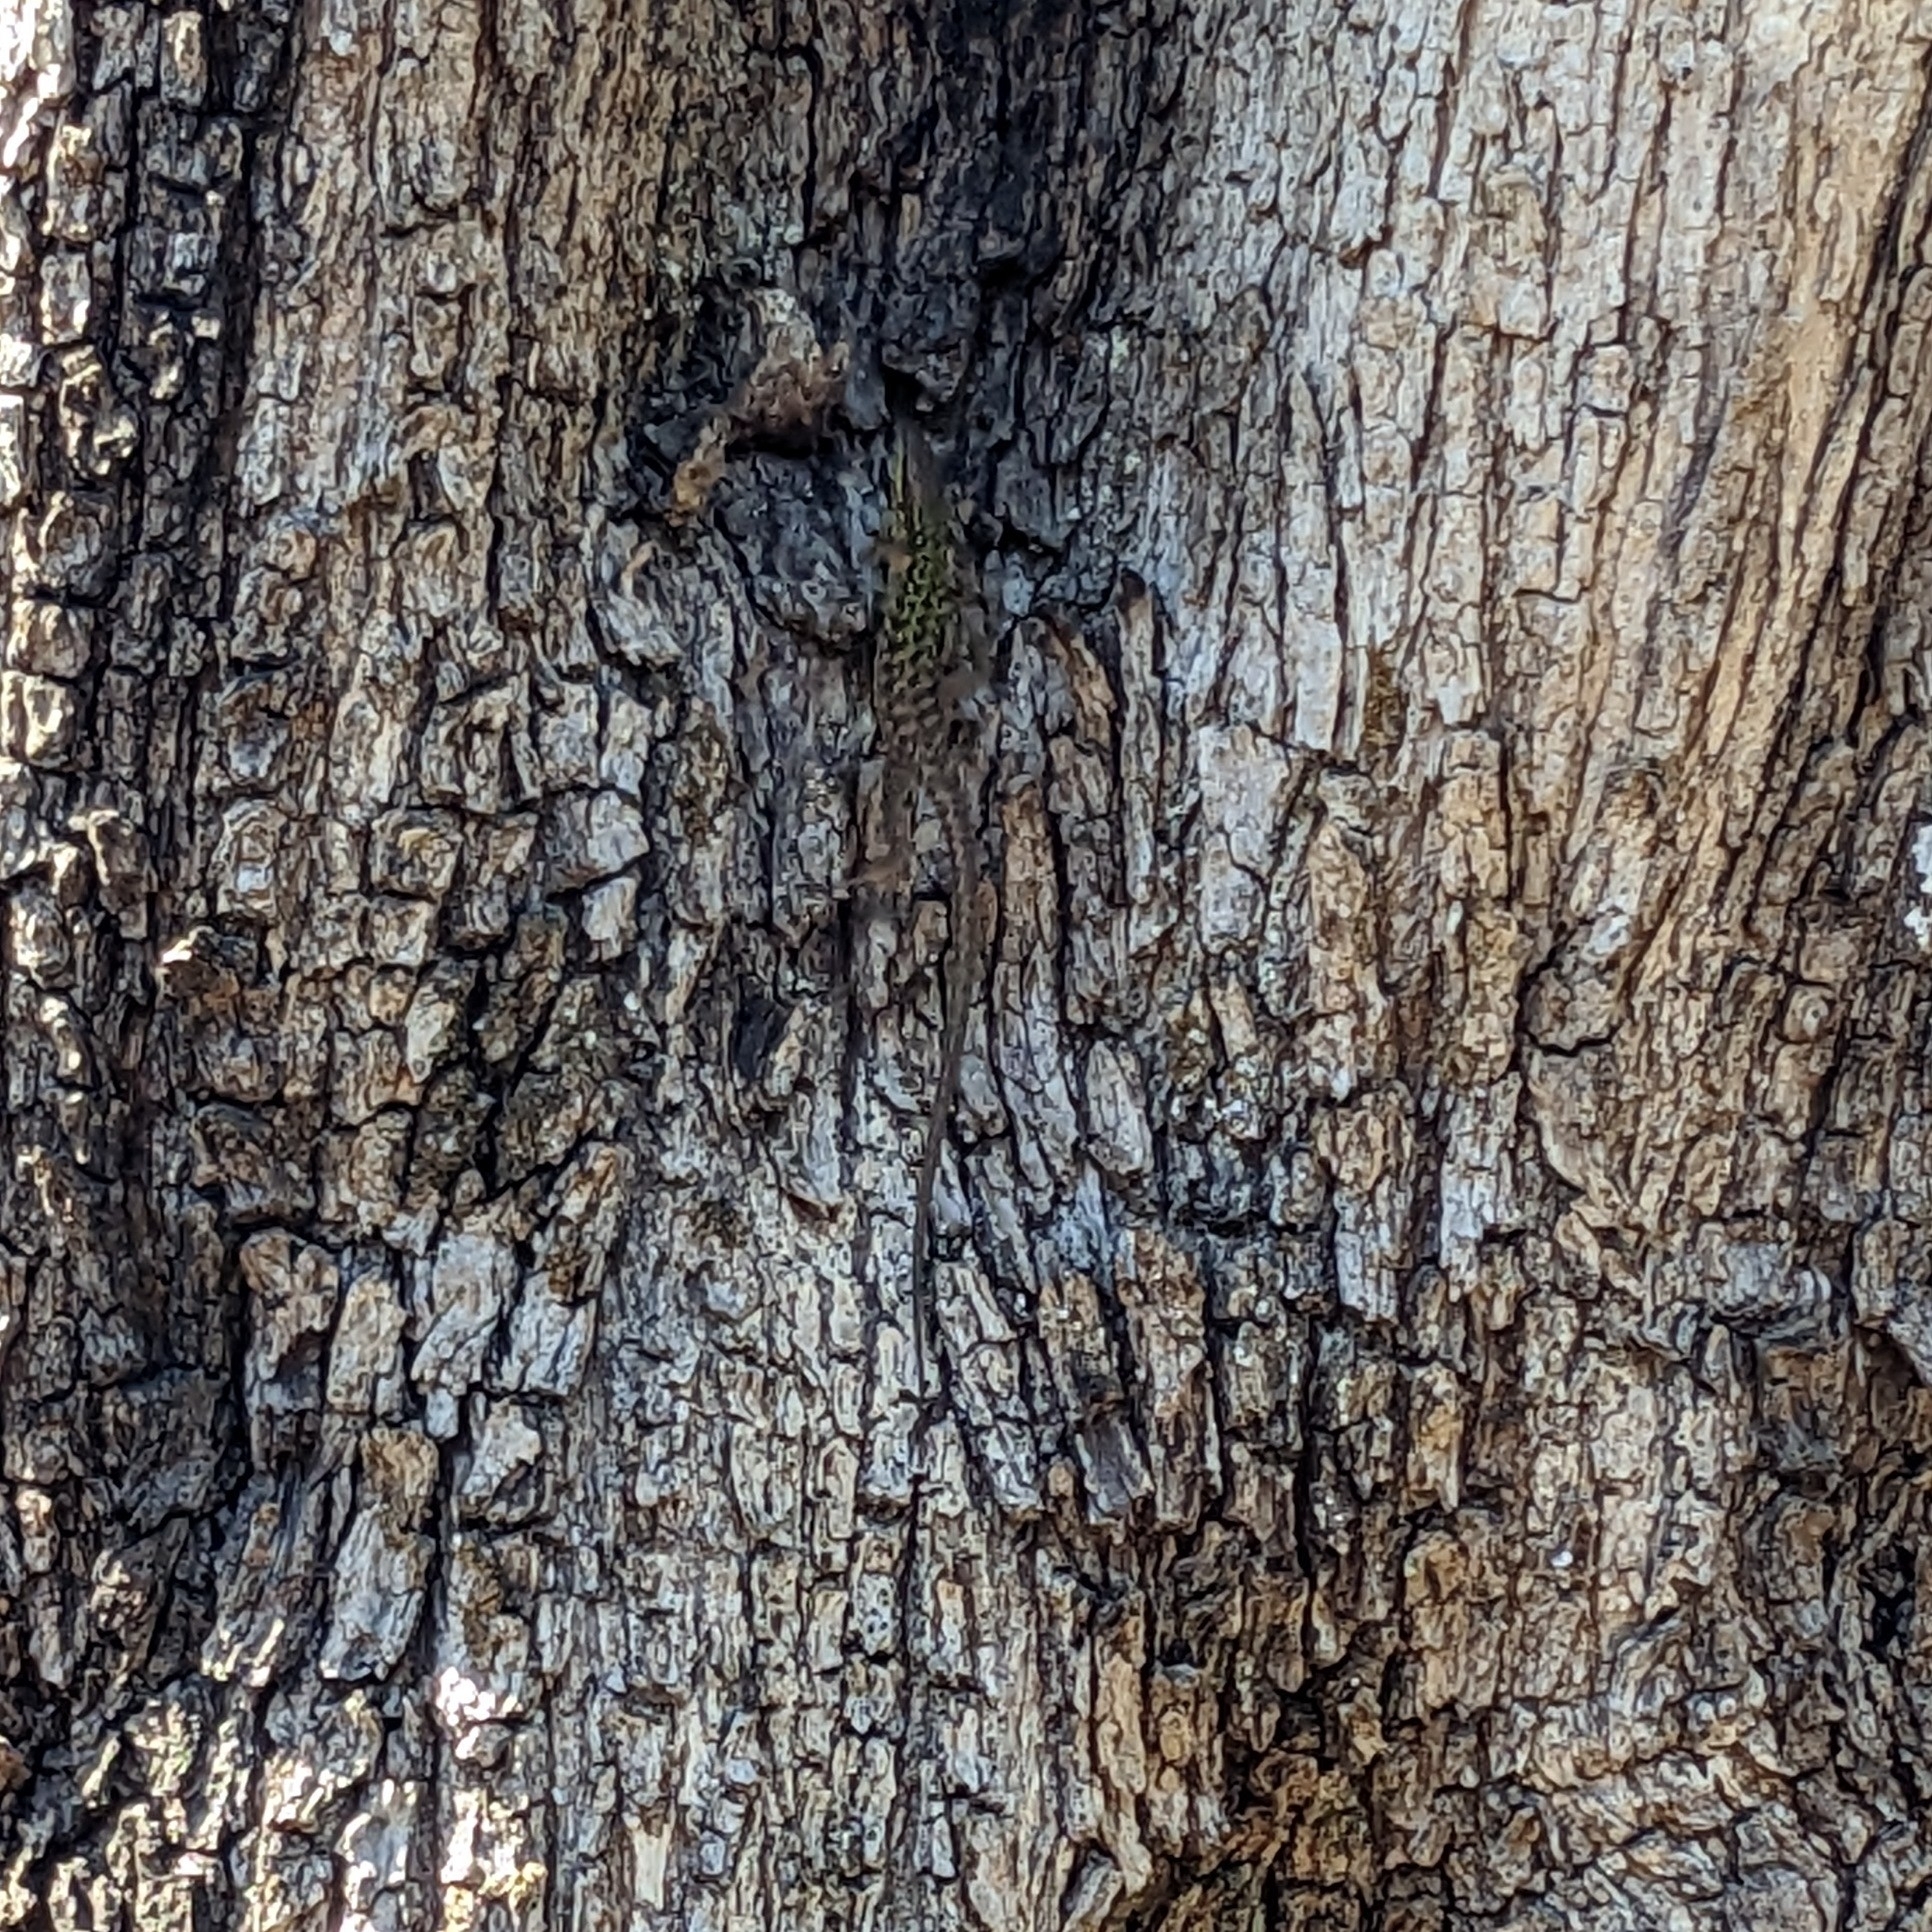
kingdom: Animalia
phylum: Chordata
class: Squamata
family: Lacertidae
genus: Podarcis
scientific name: Podarcis siculus
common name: Italian wall lizard
